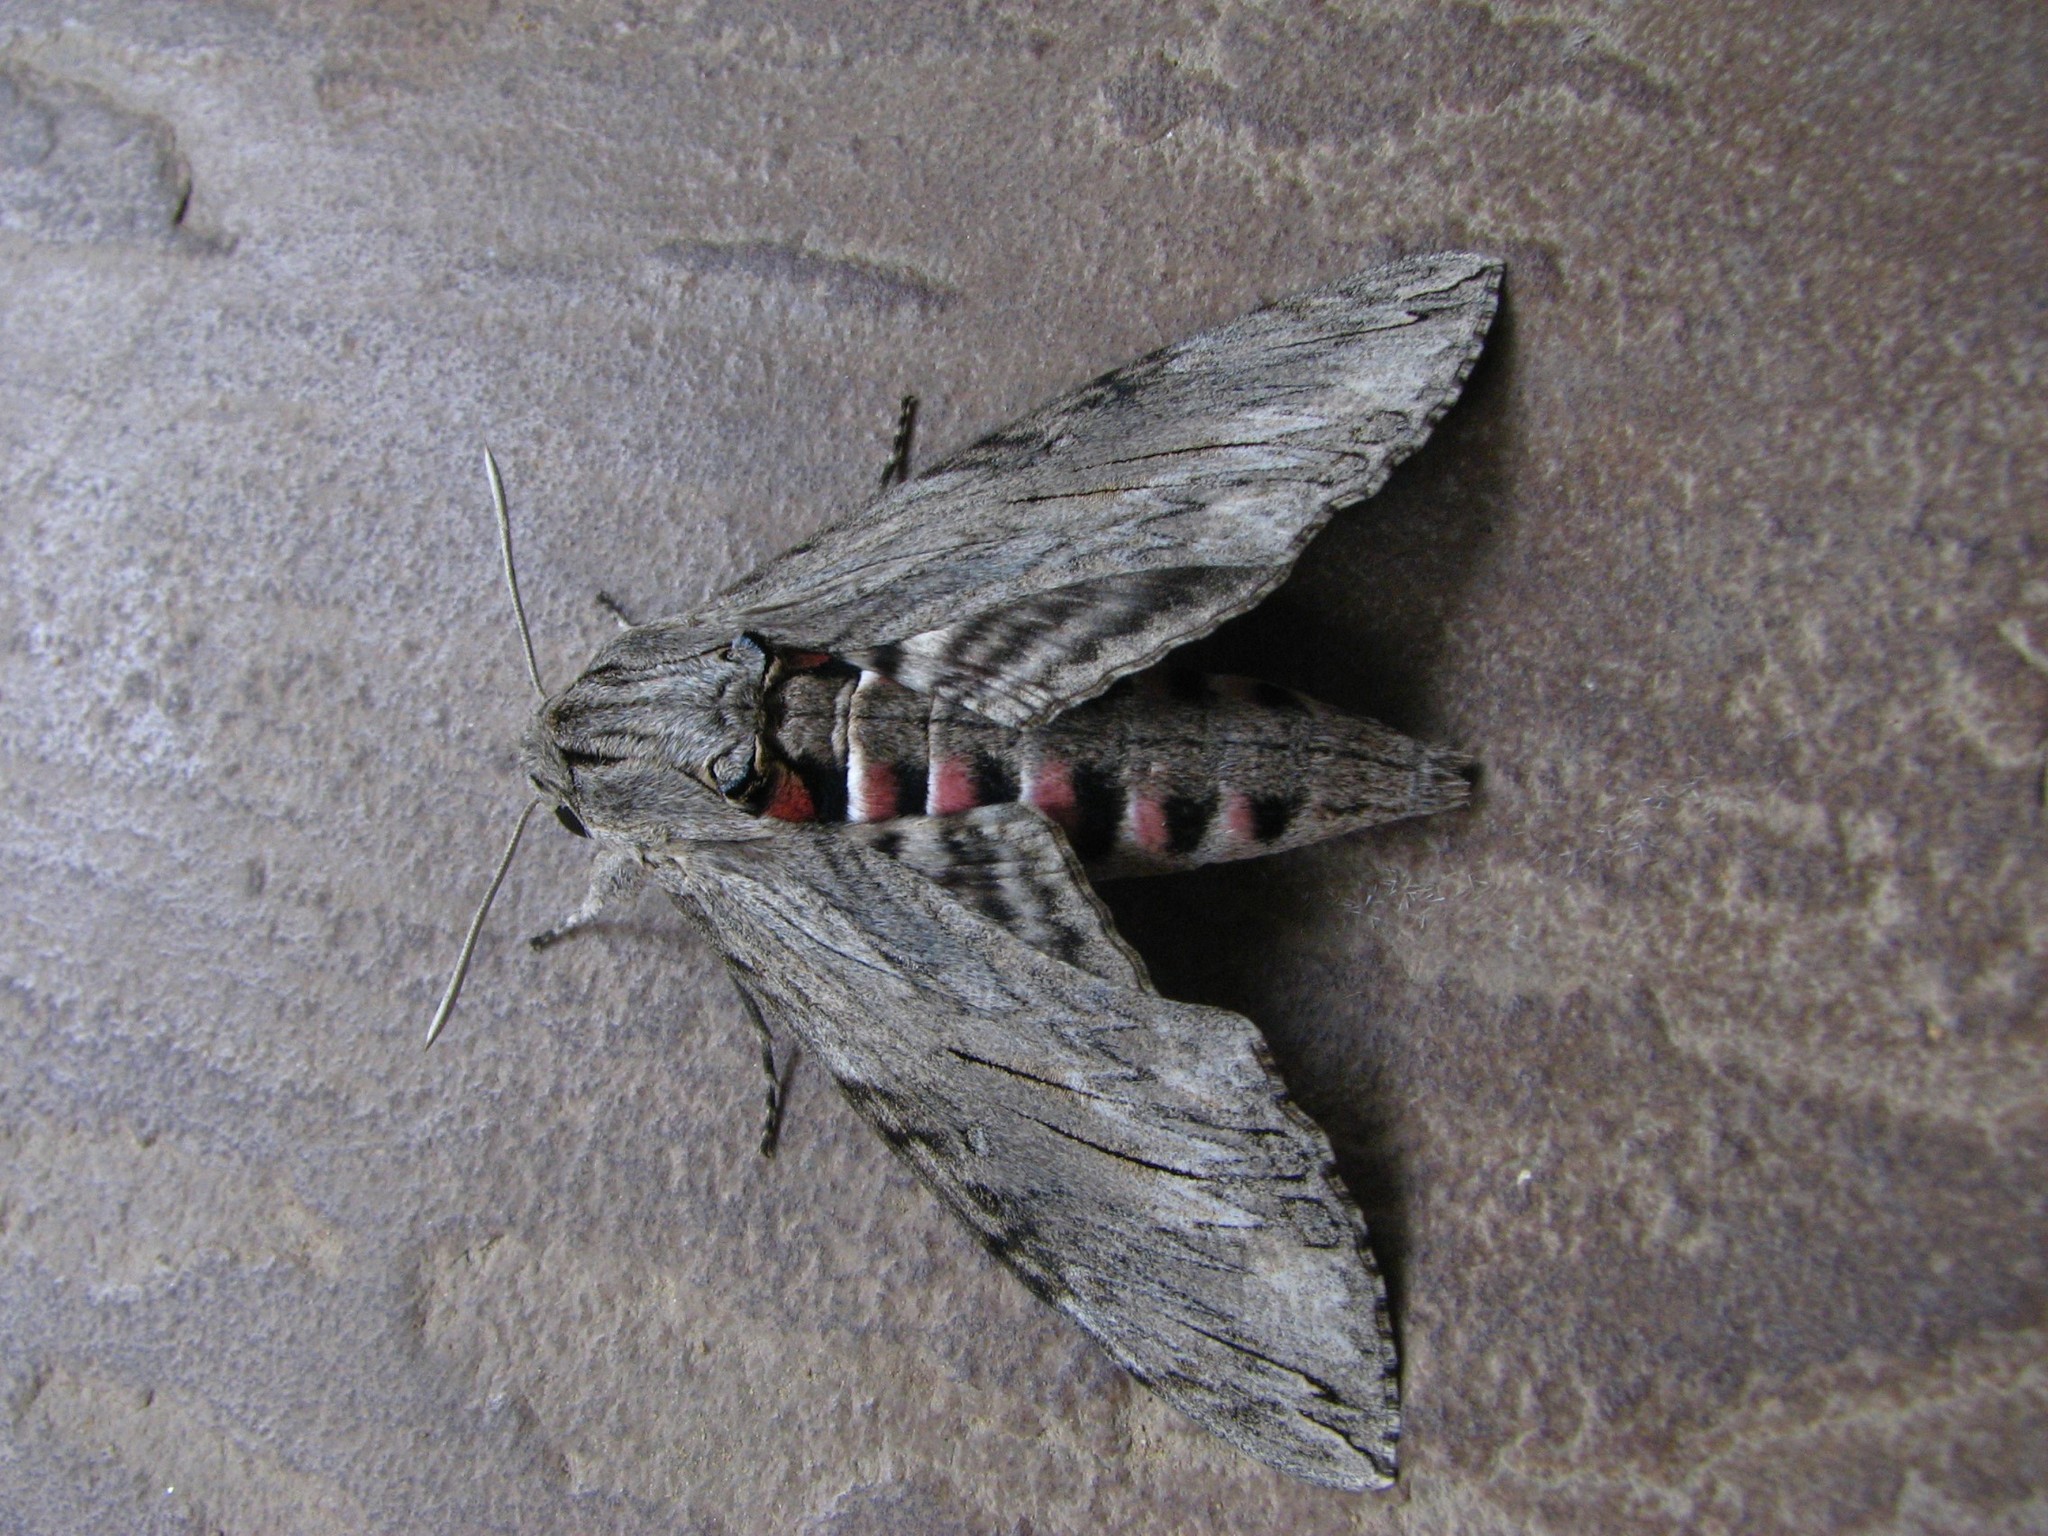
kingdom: Animalia
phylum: Arthropoda
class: Insecta
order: Lepidoptera
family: Sphingidae
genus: Agrius
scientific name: Agrius convolvuli
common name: Convolvulus hawkmoth
